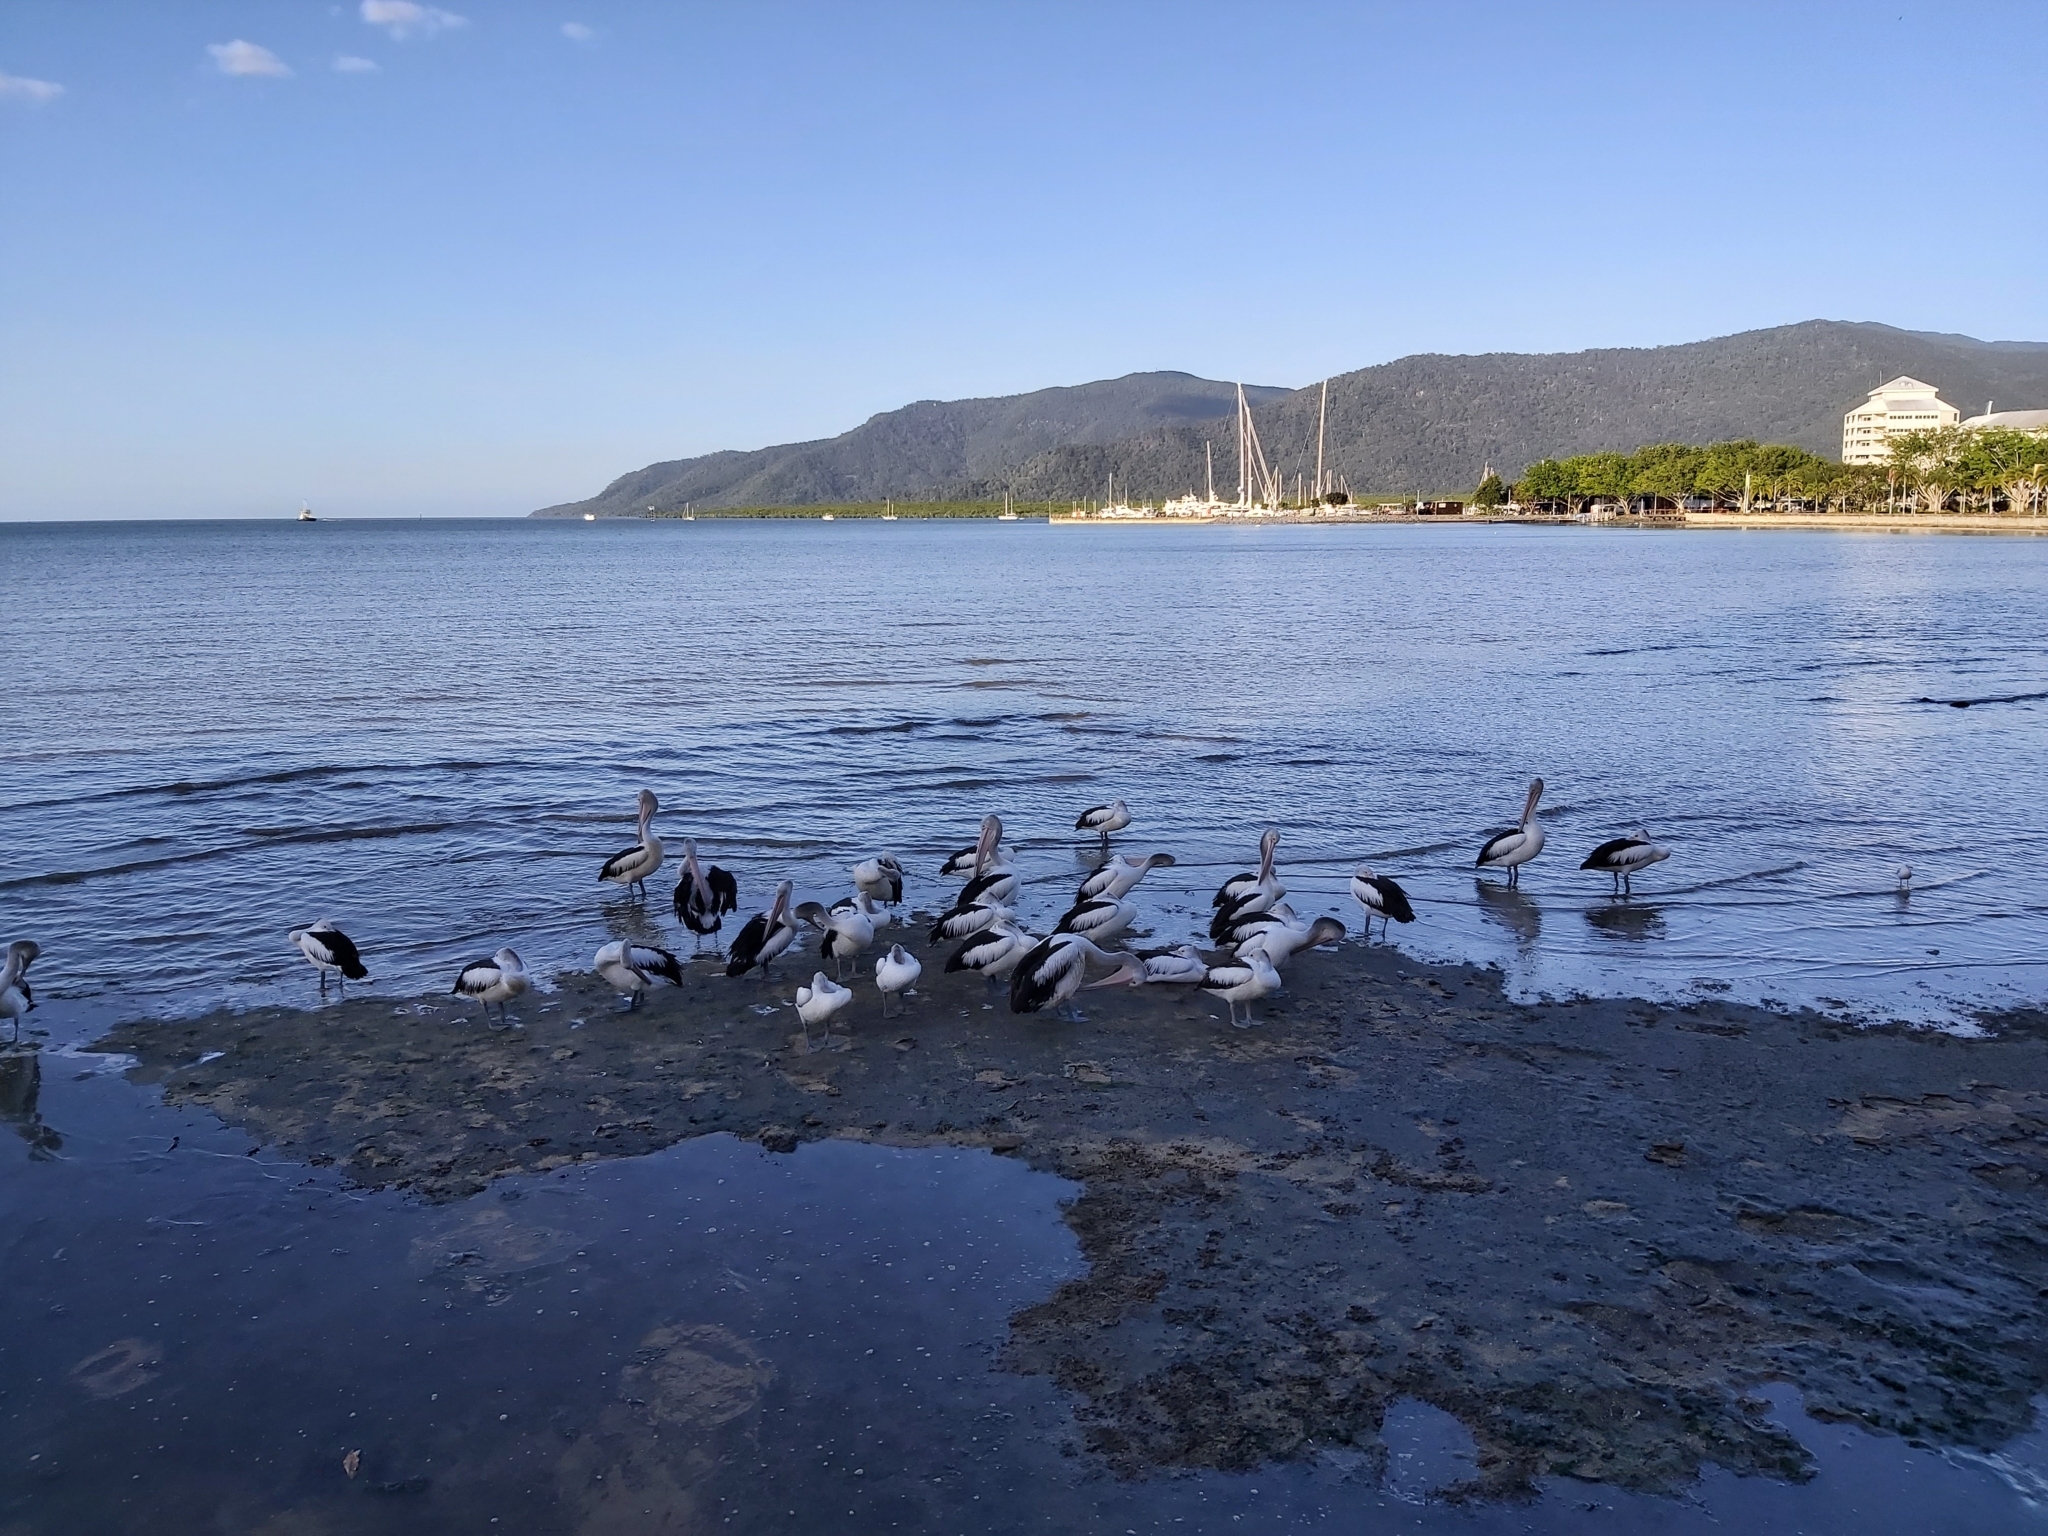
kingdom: Animalia
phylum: Chordata
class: Aves
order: Pelecaniformes
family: Pelecanidae
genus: Pelecanus
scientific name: Pelecanus conspicillatus
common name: Australian pelican
